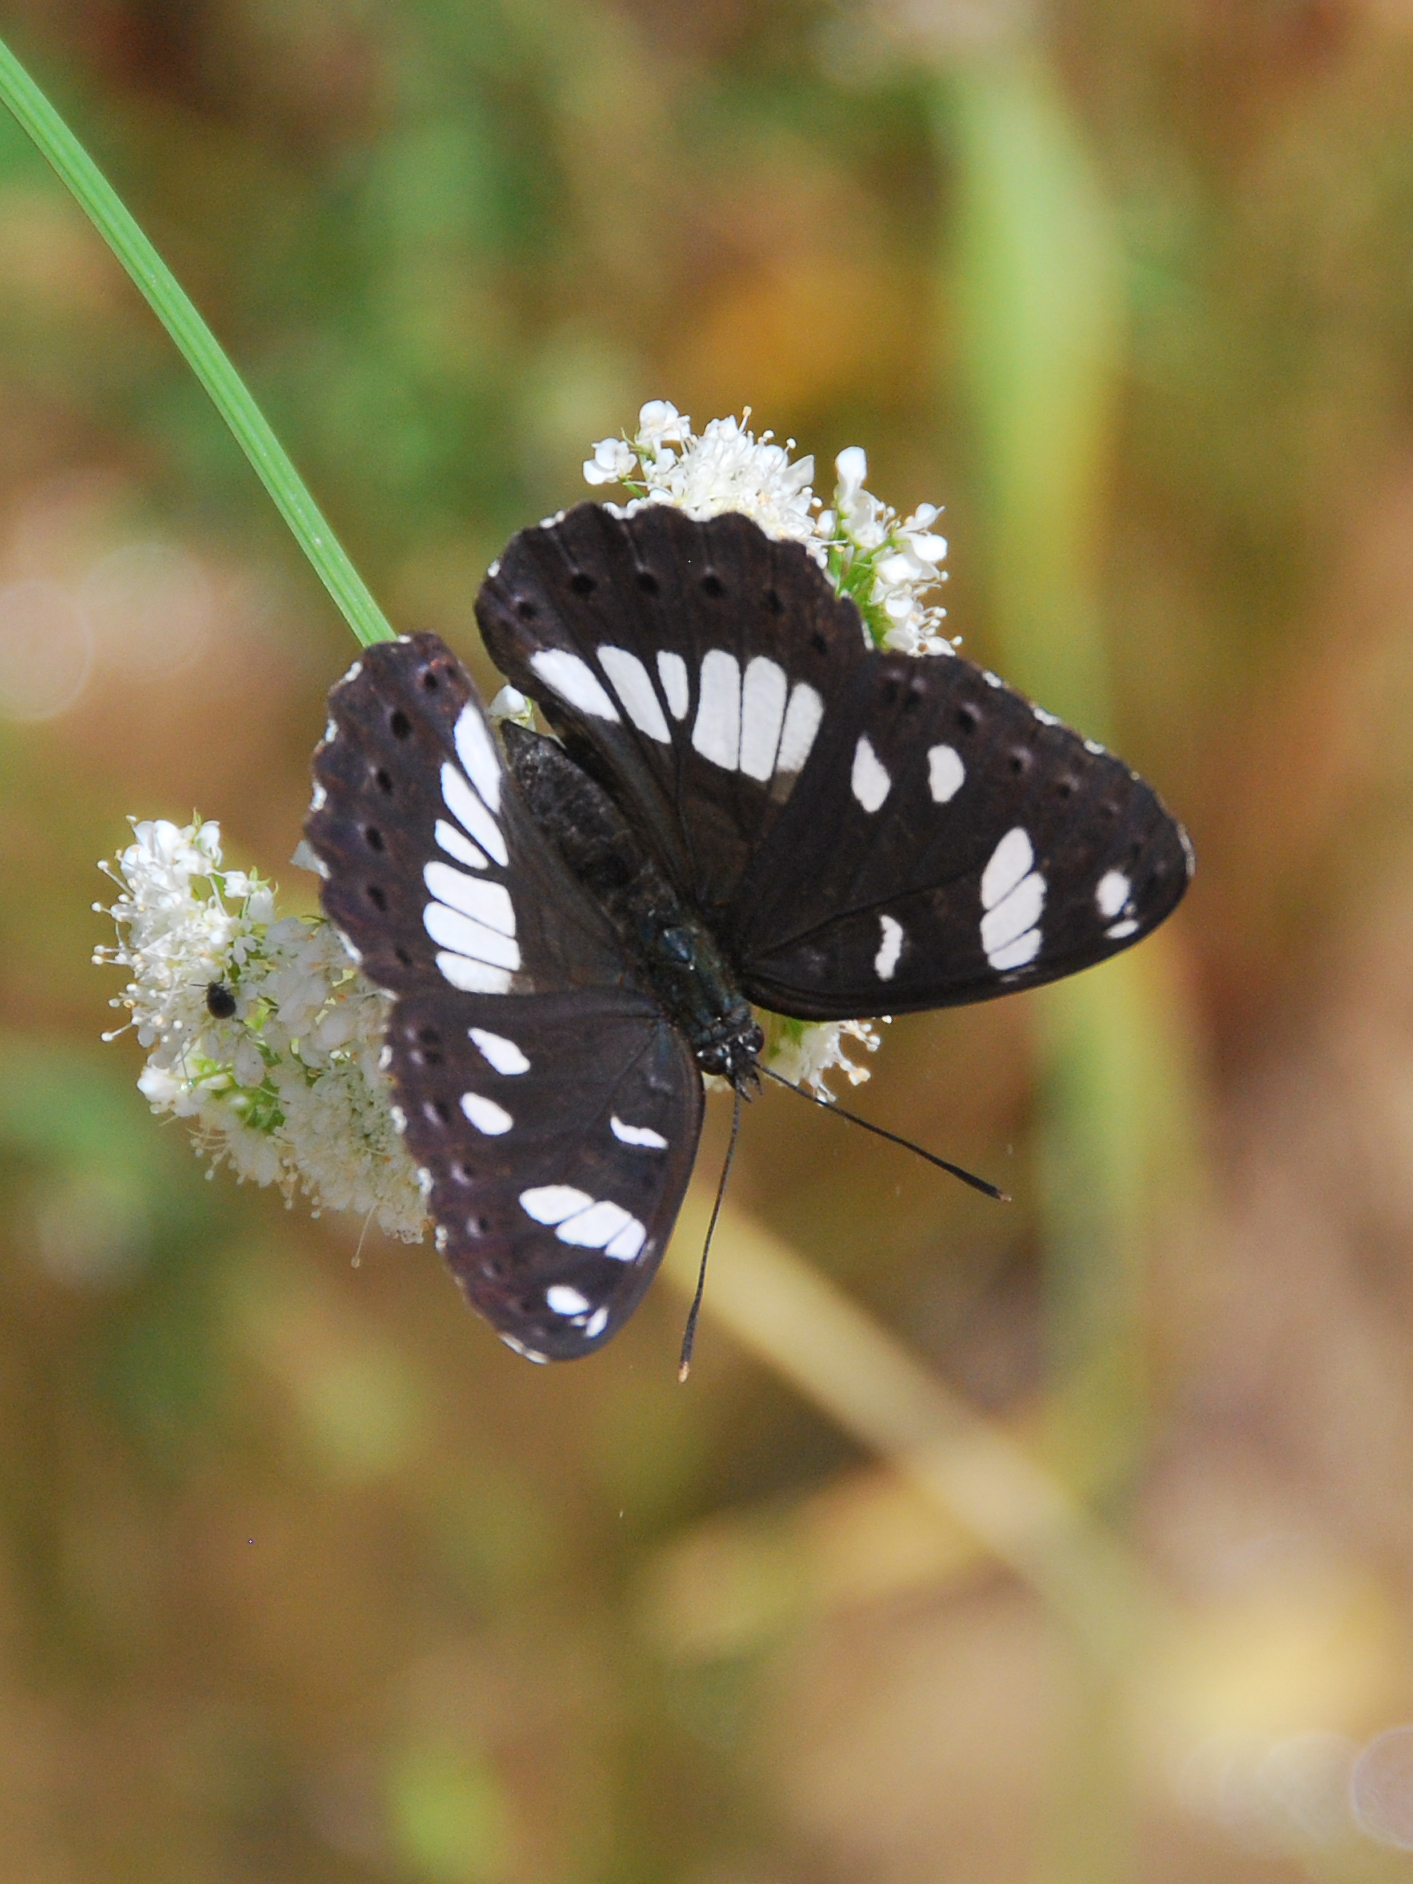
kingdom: Animalia
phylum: Arthropoda
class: Insecta
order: Lepidoptera
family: Nymphalidae
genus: Limenitis
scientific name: Limenitis reducta
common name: Southern white admiral
